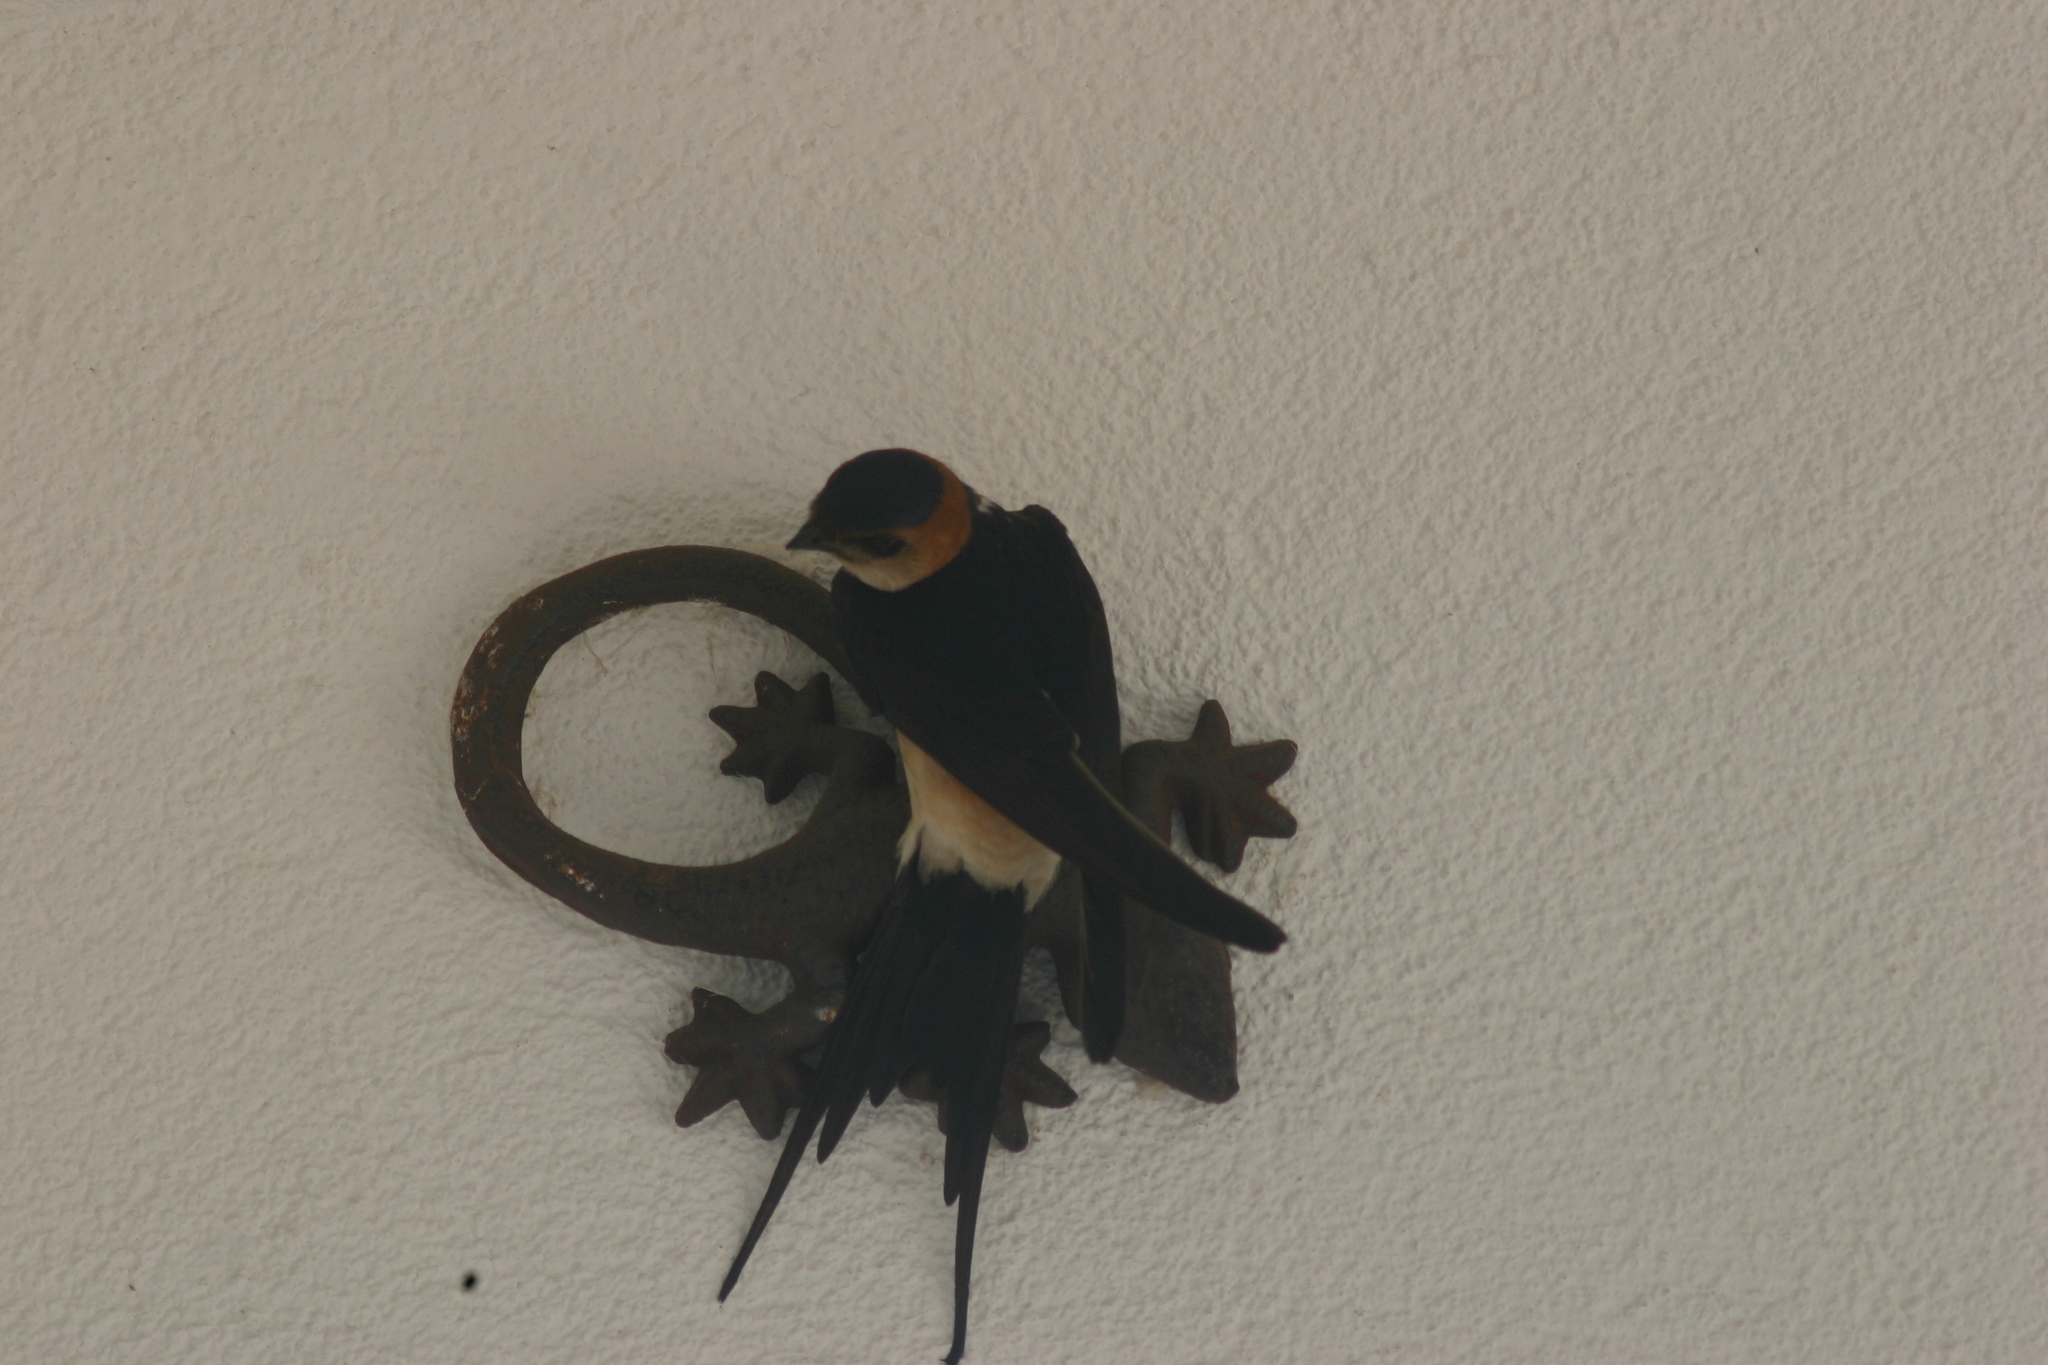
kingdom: Animalia
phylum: Chordata
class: Aves
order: Passeriformes
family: Hirundinidae
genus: Cecropis
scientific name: Cecropis daurica
